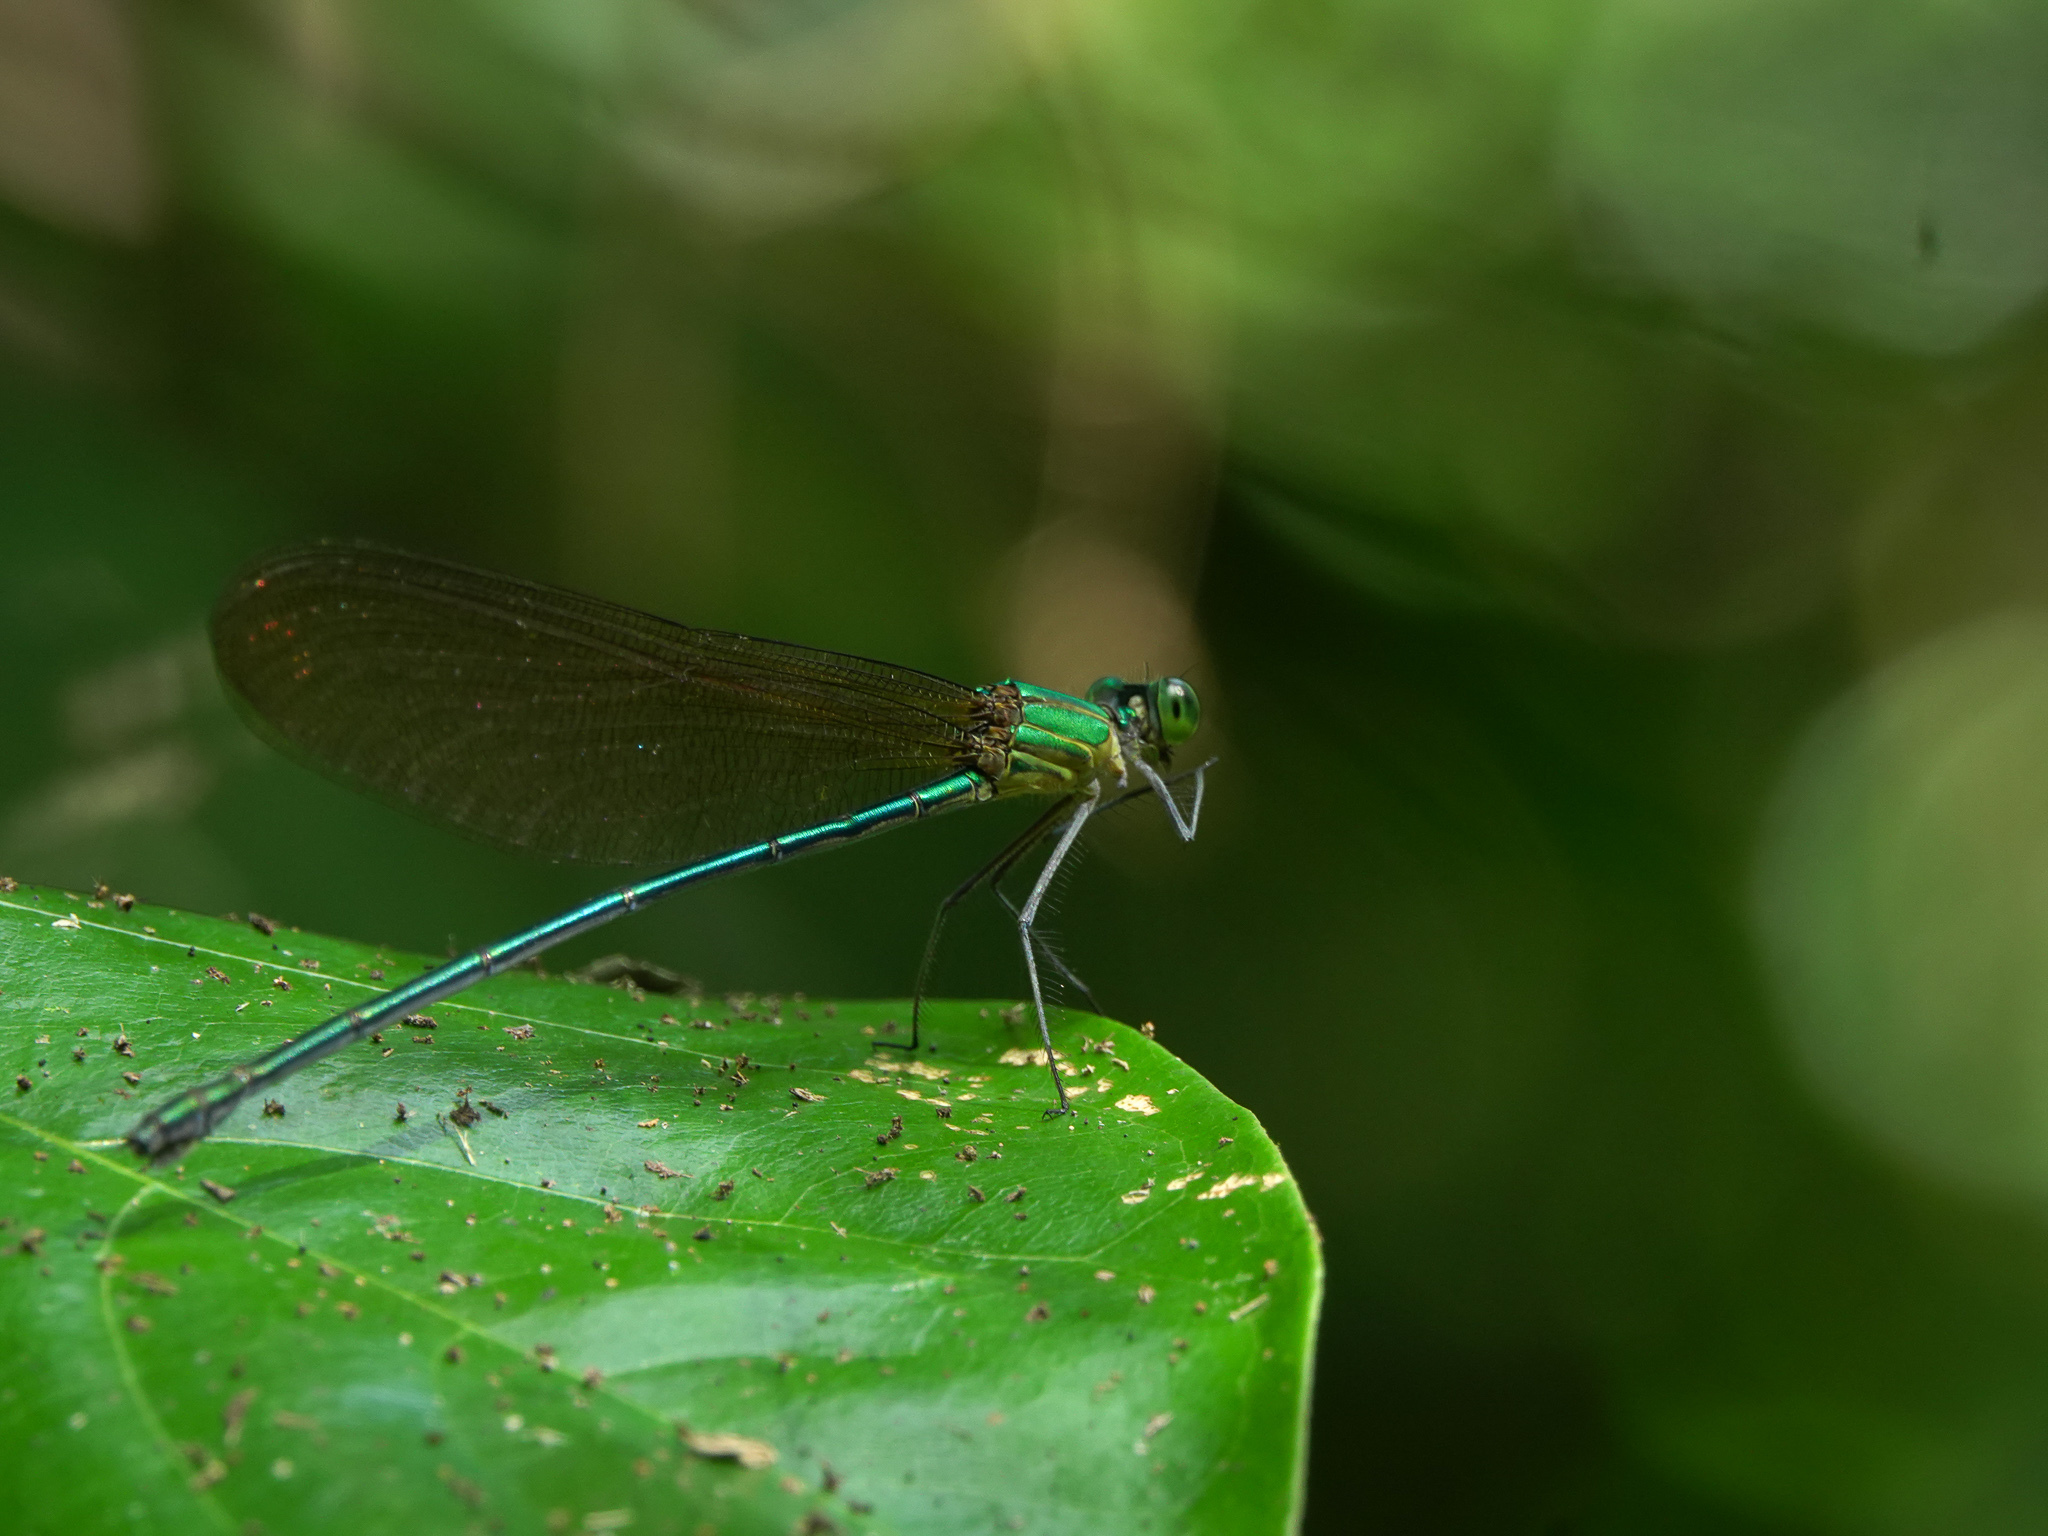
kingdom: Animalia
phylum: Arthropoda
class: Insecta
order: Odonata
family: Calopterygidae
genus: Vestalis
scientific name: Vestalis gracilis
